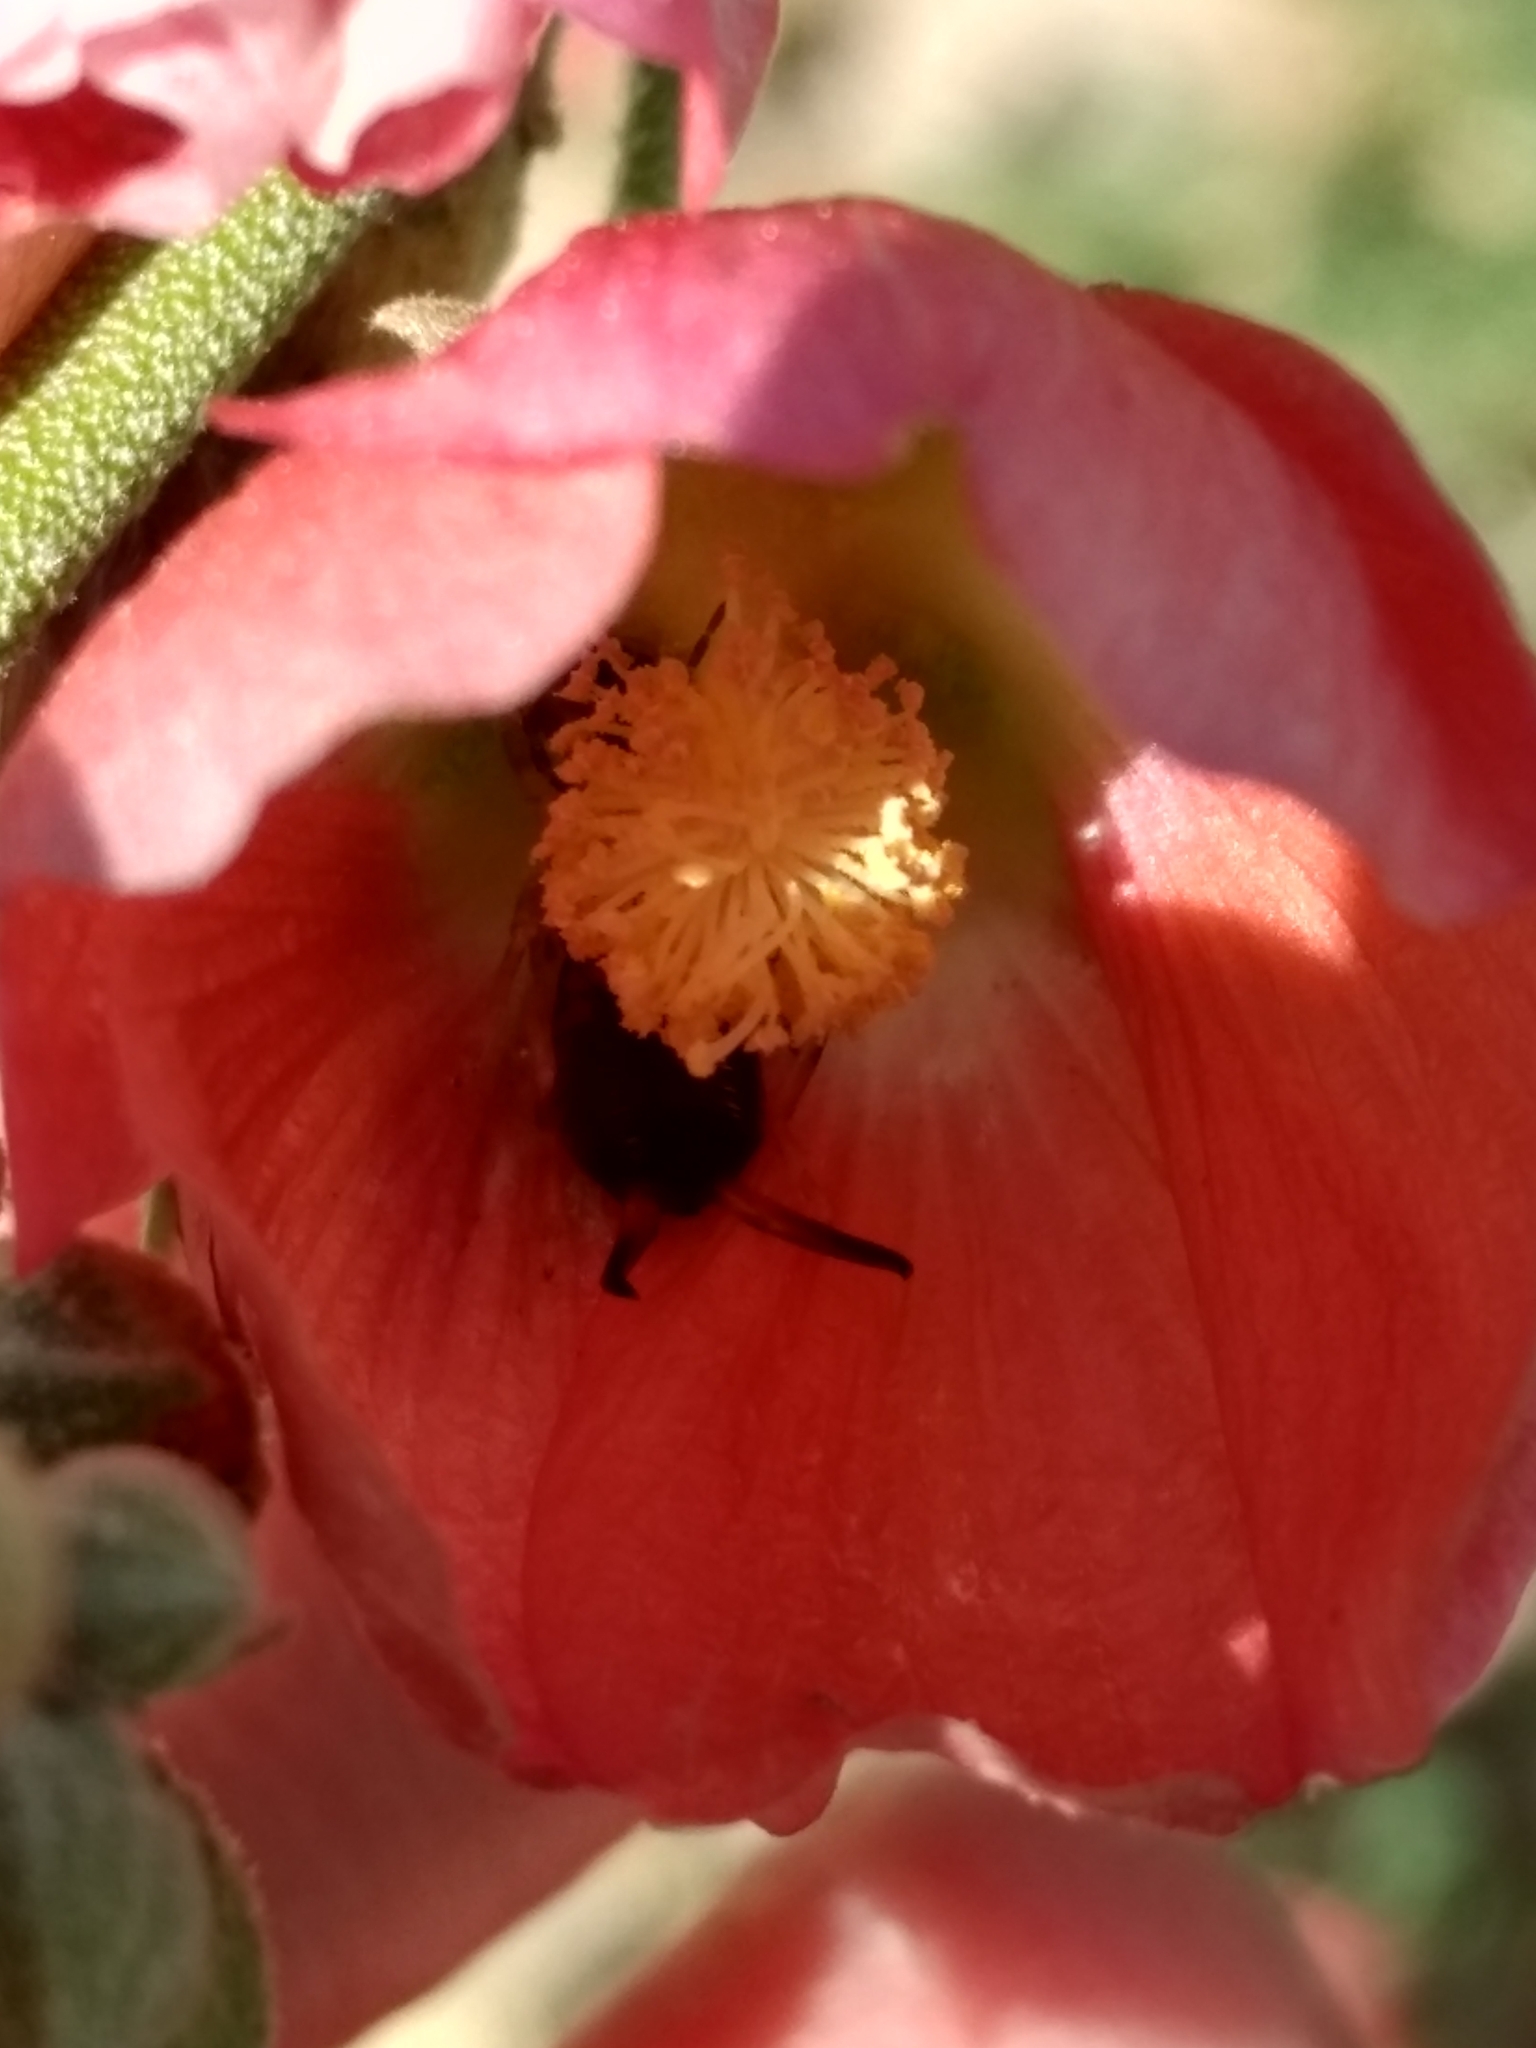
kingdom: Animalia
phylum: Arthropoda
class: Insecta
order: Dermaptera
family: Forficulidae
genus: Forficula
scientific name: Forficula
